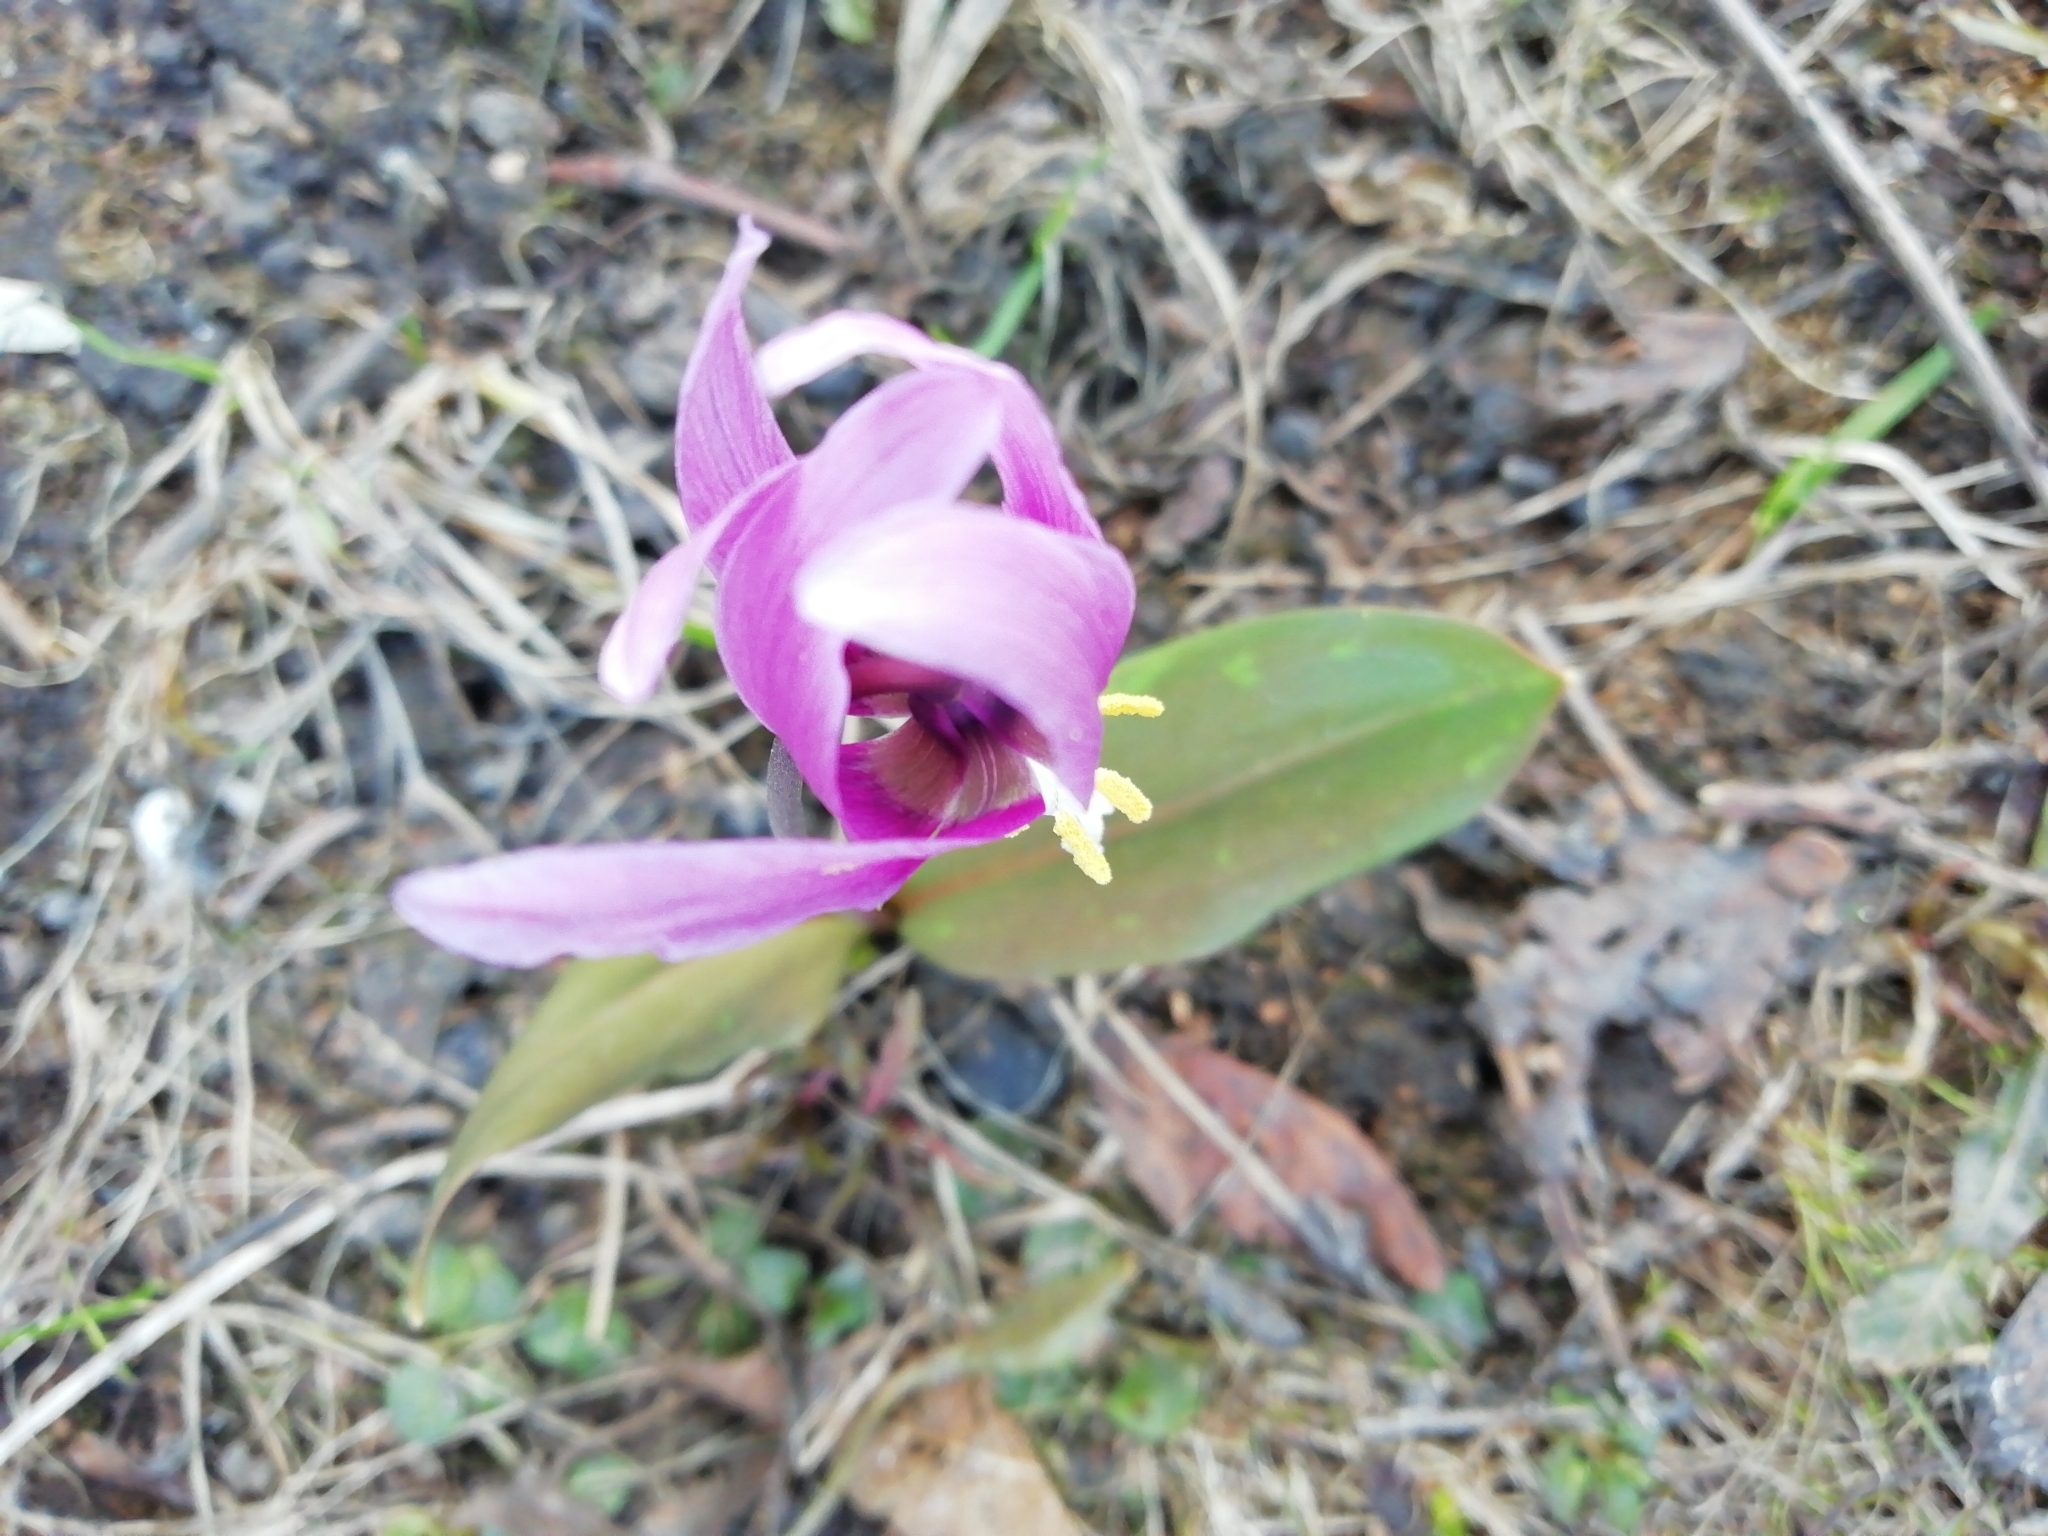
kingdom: Plantae
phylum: Tracheophyta
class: Liliopsida
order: Liliales
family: Liliaceae
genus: Erythronium
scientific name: Erythronium sibiricum
